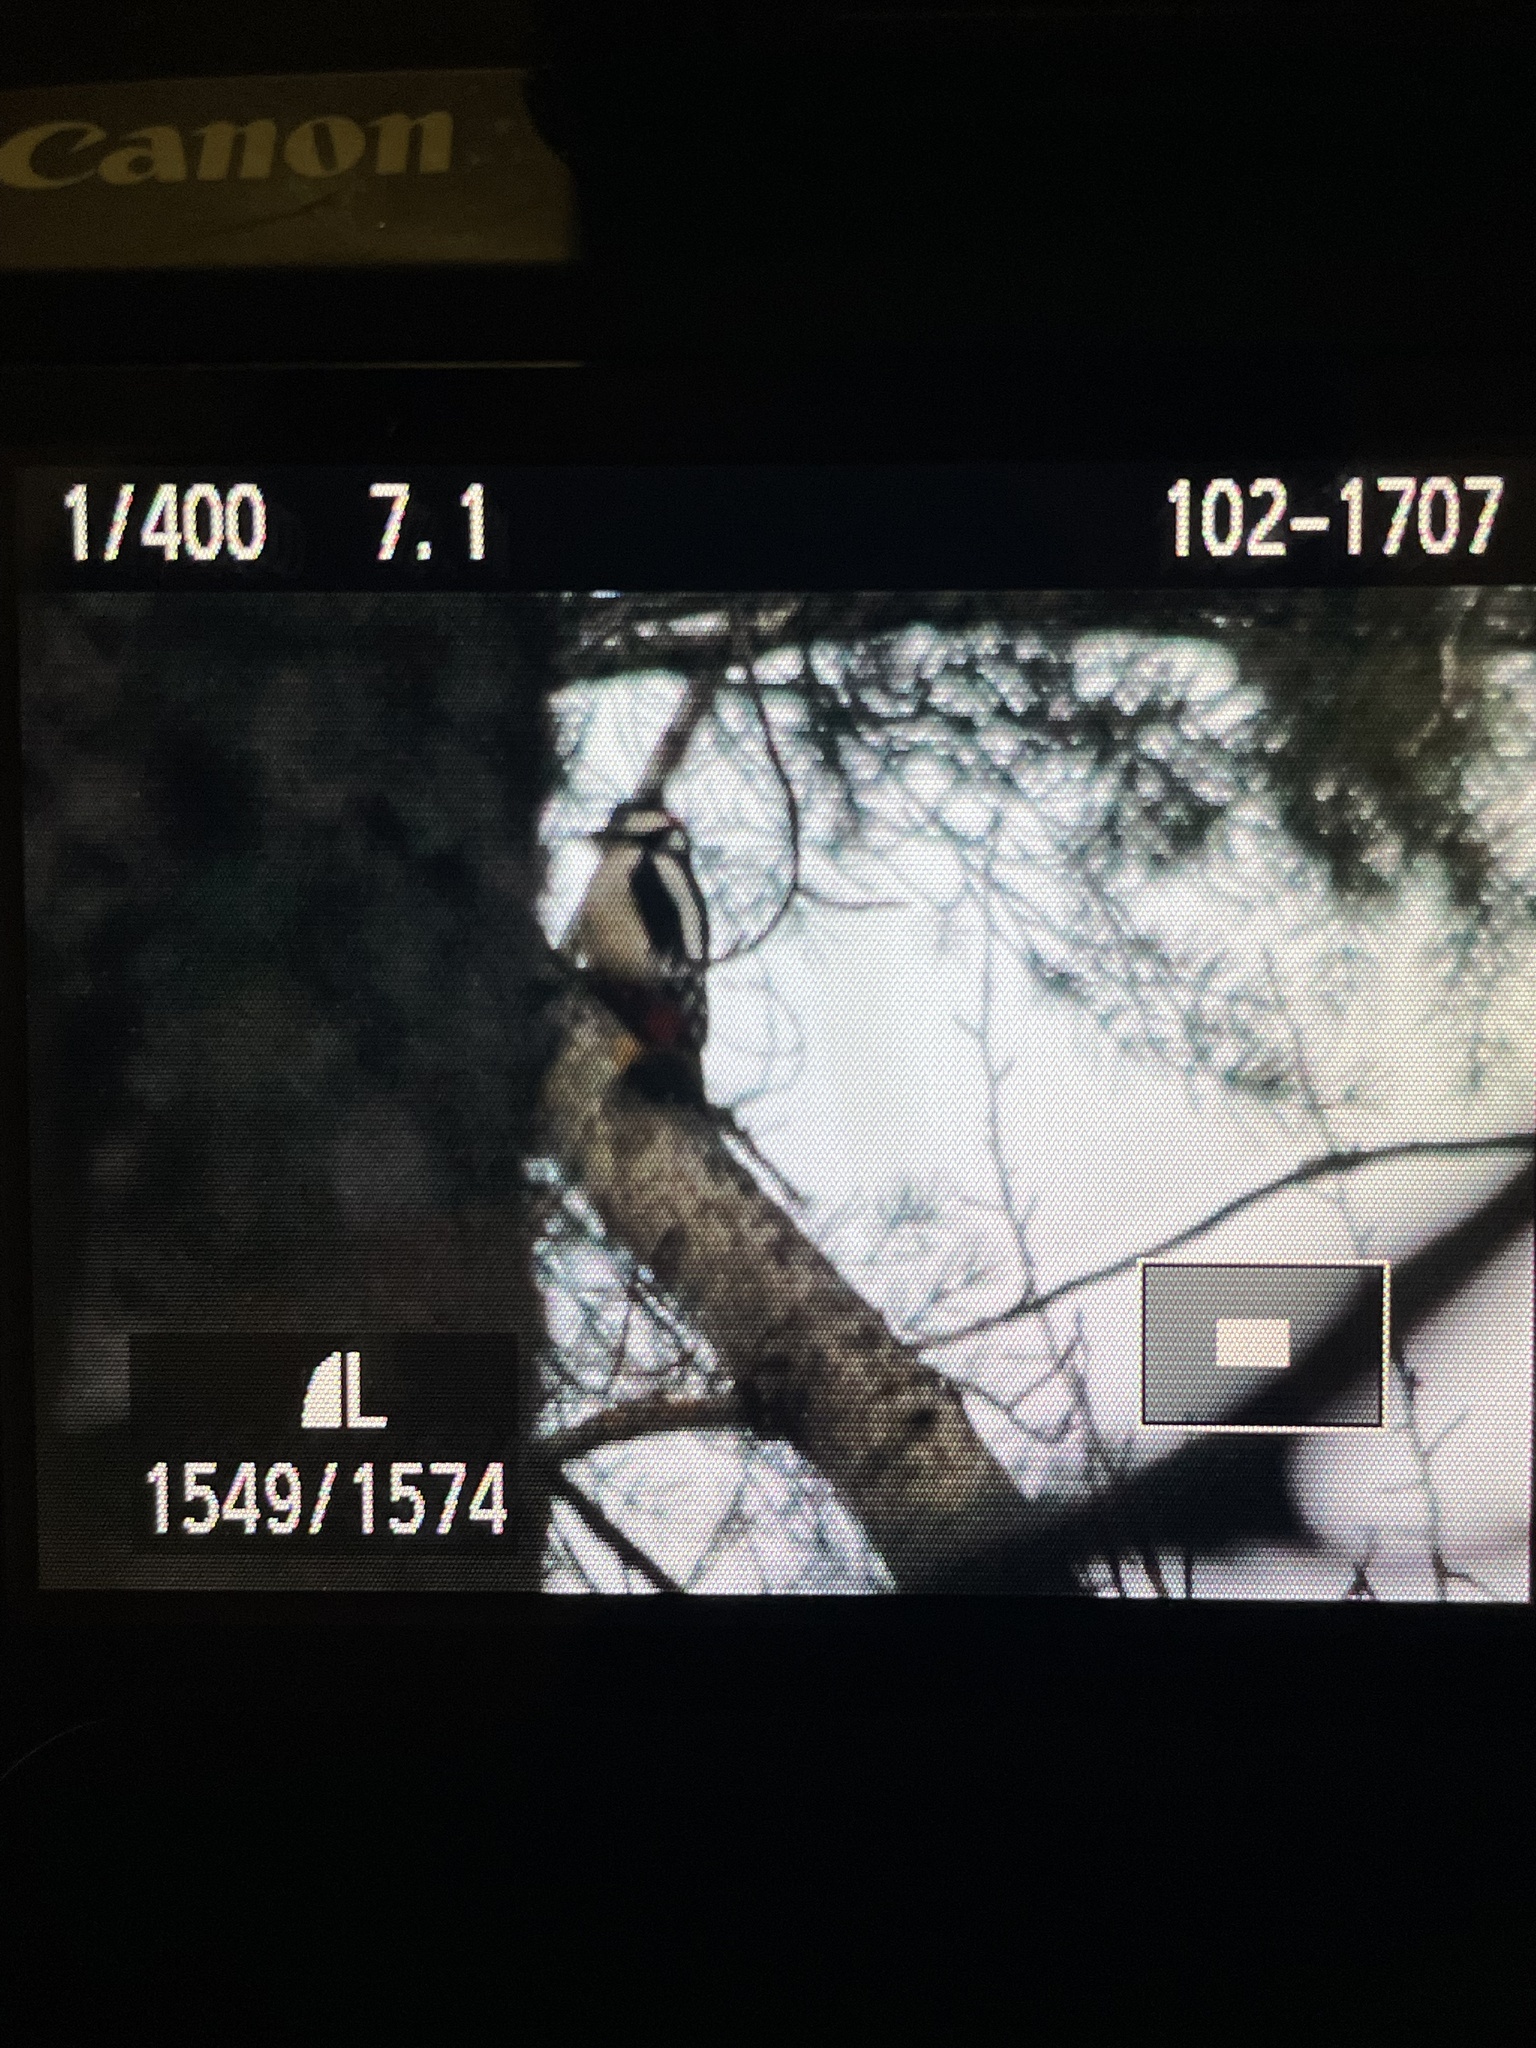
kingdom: Animalia
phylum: Chordata
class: Aves
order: Piciformes
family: Picidae
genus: Dendrocopos
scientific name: Dendrocopos major
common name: Great spotted woodpecker
